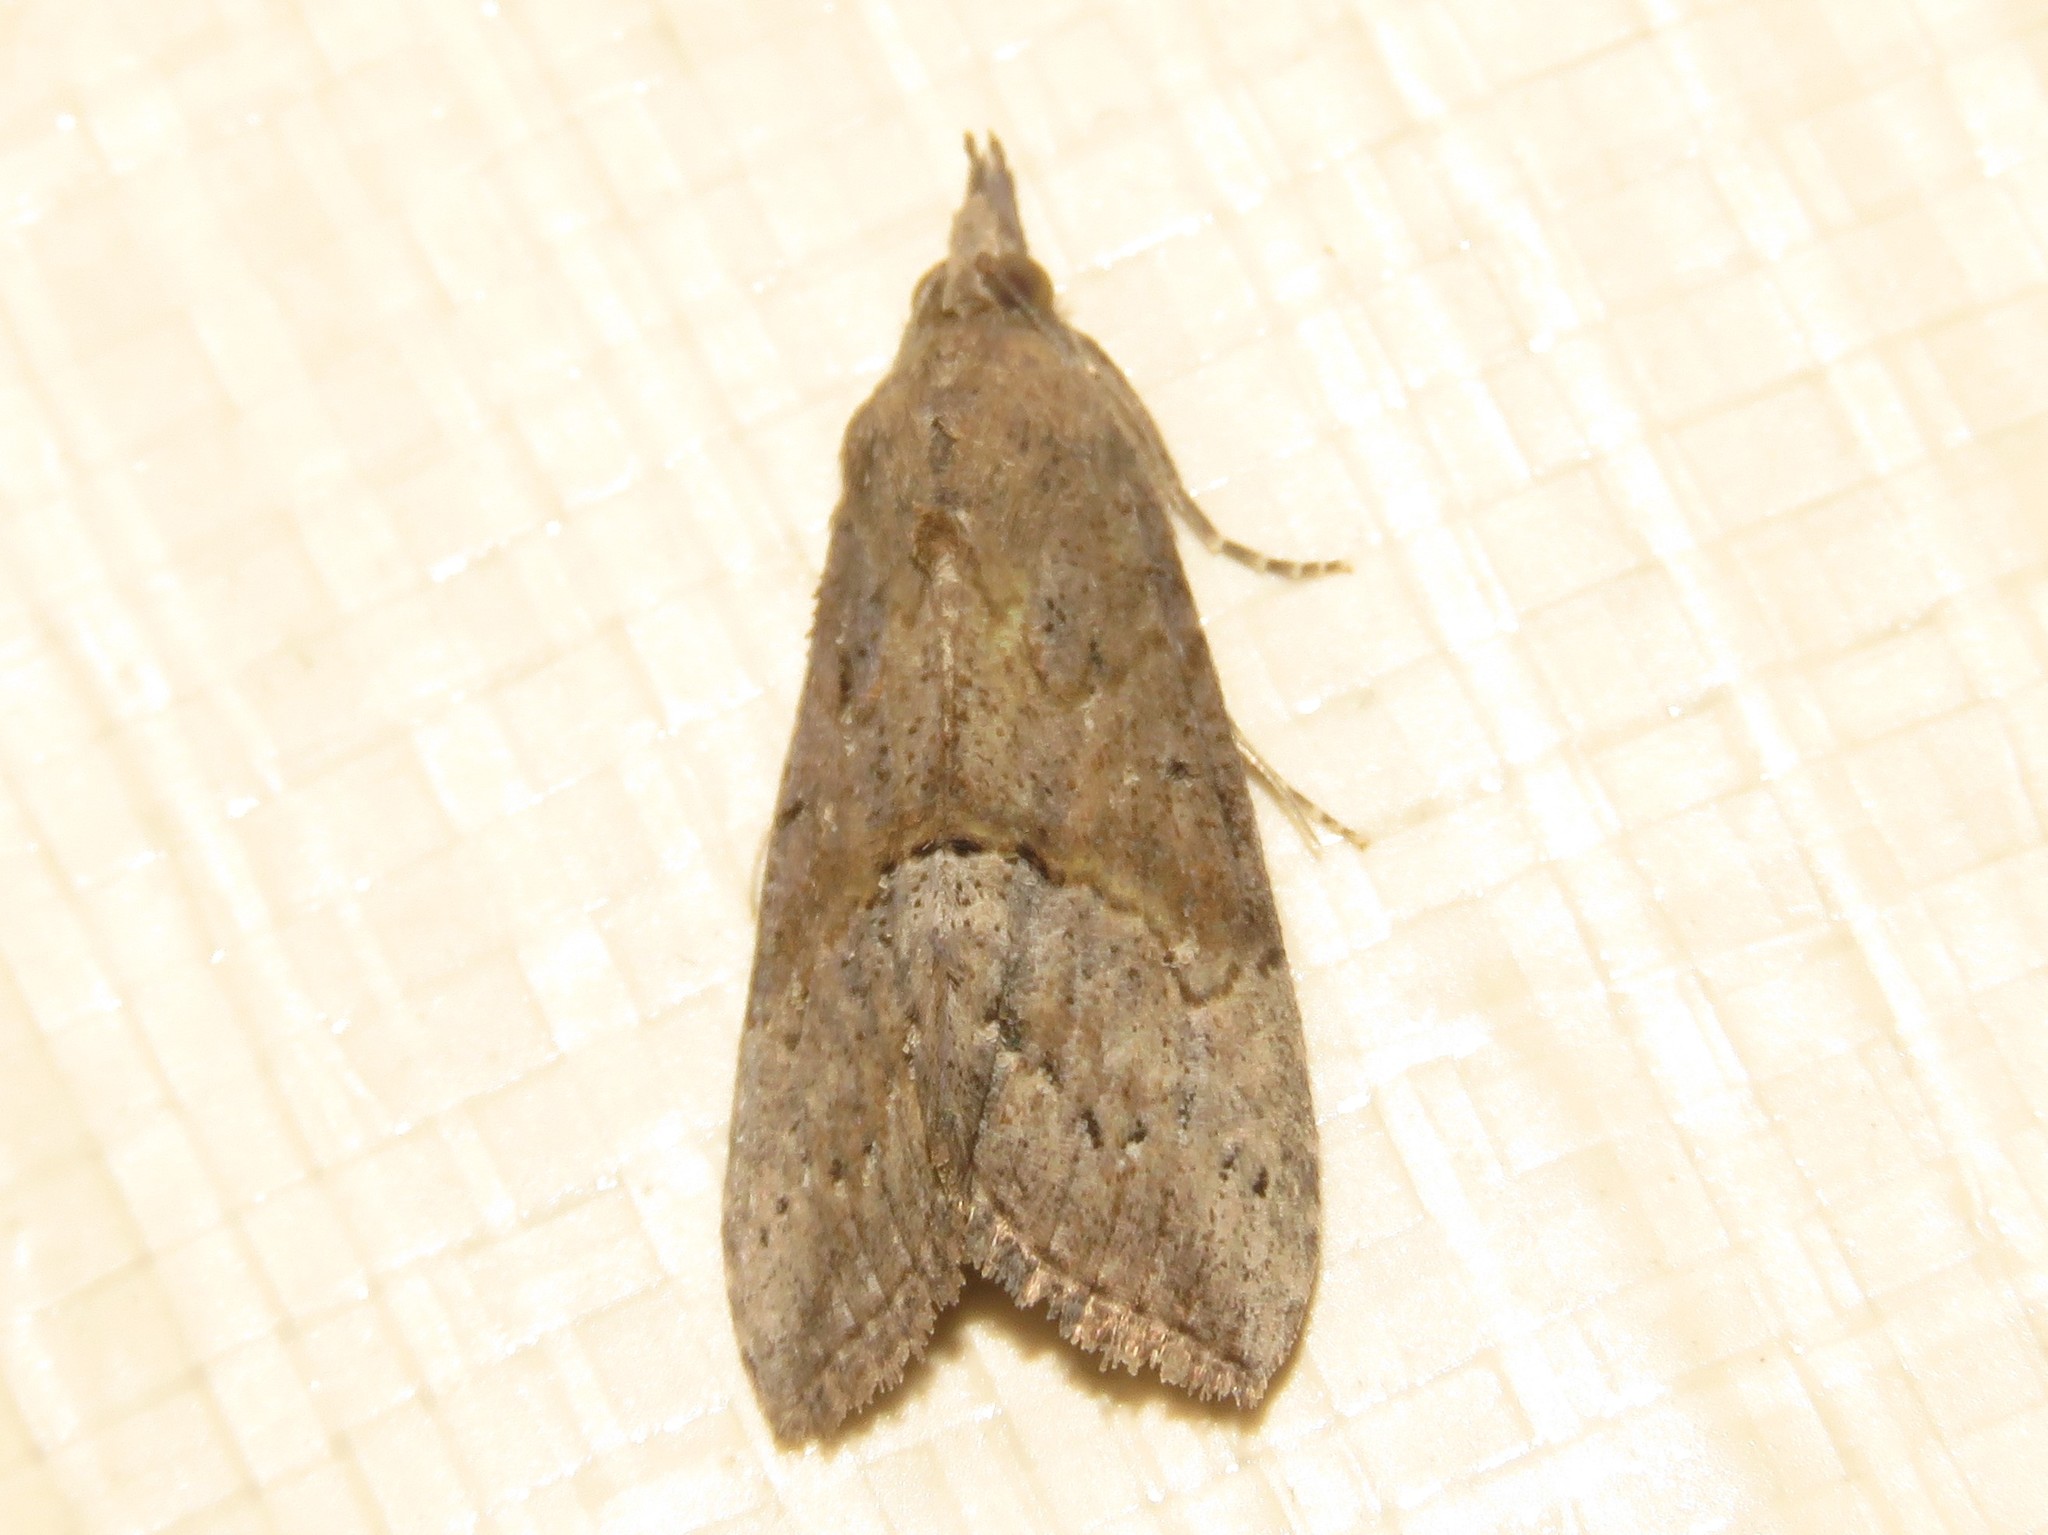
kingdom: Animalia
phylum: Arthropoda
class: Insecta
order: Lepidoptera
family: Erebidae
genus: Hypena
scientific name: Hypena scabra
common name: Green cloverworm
